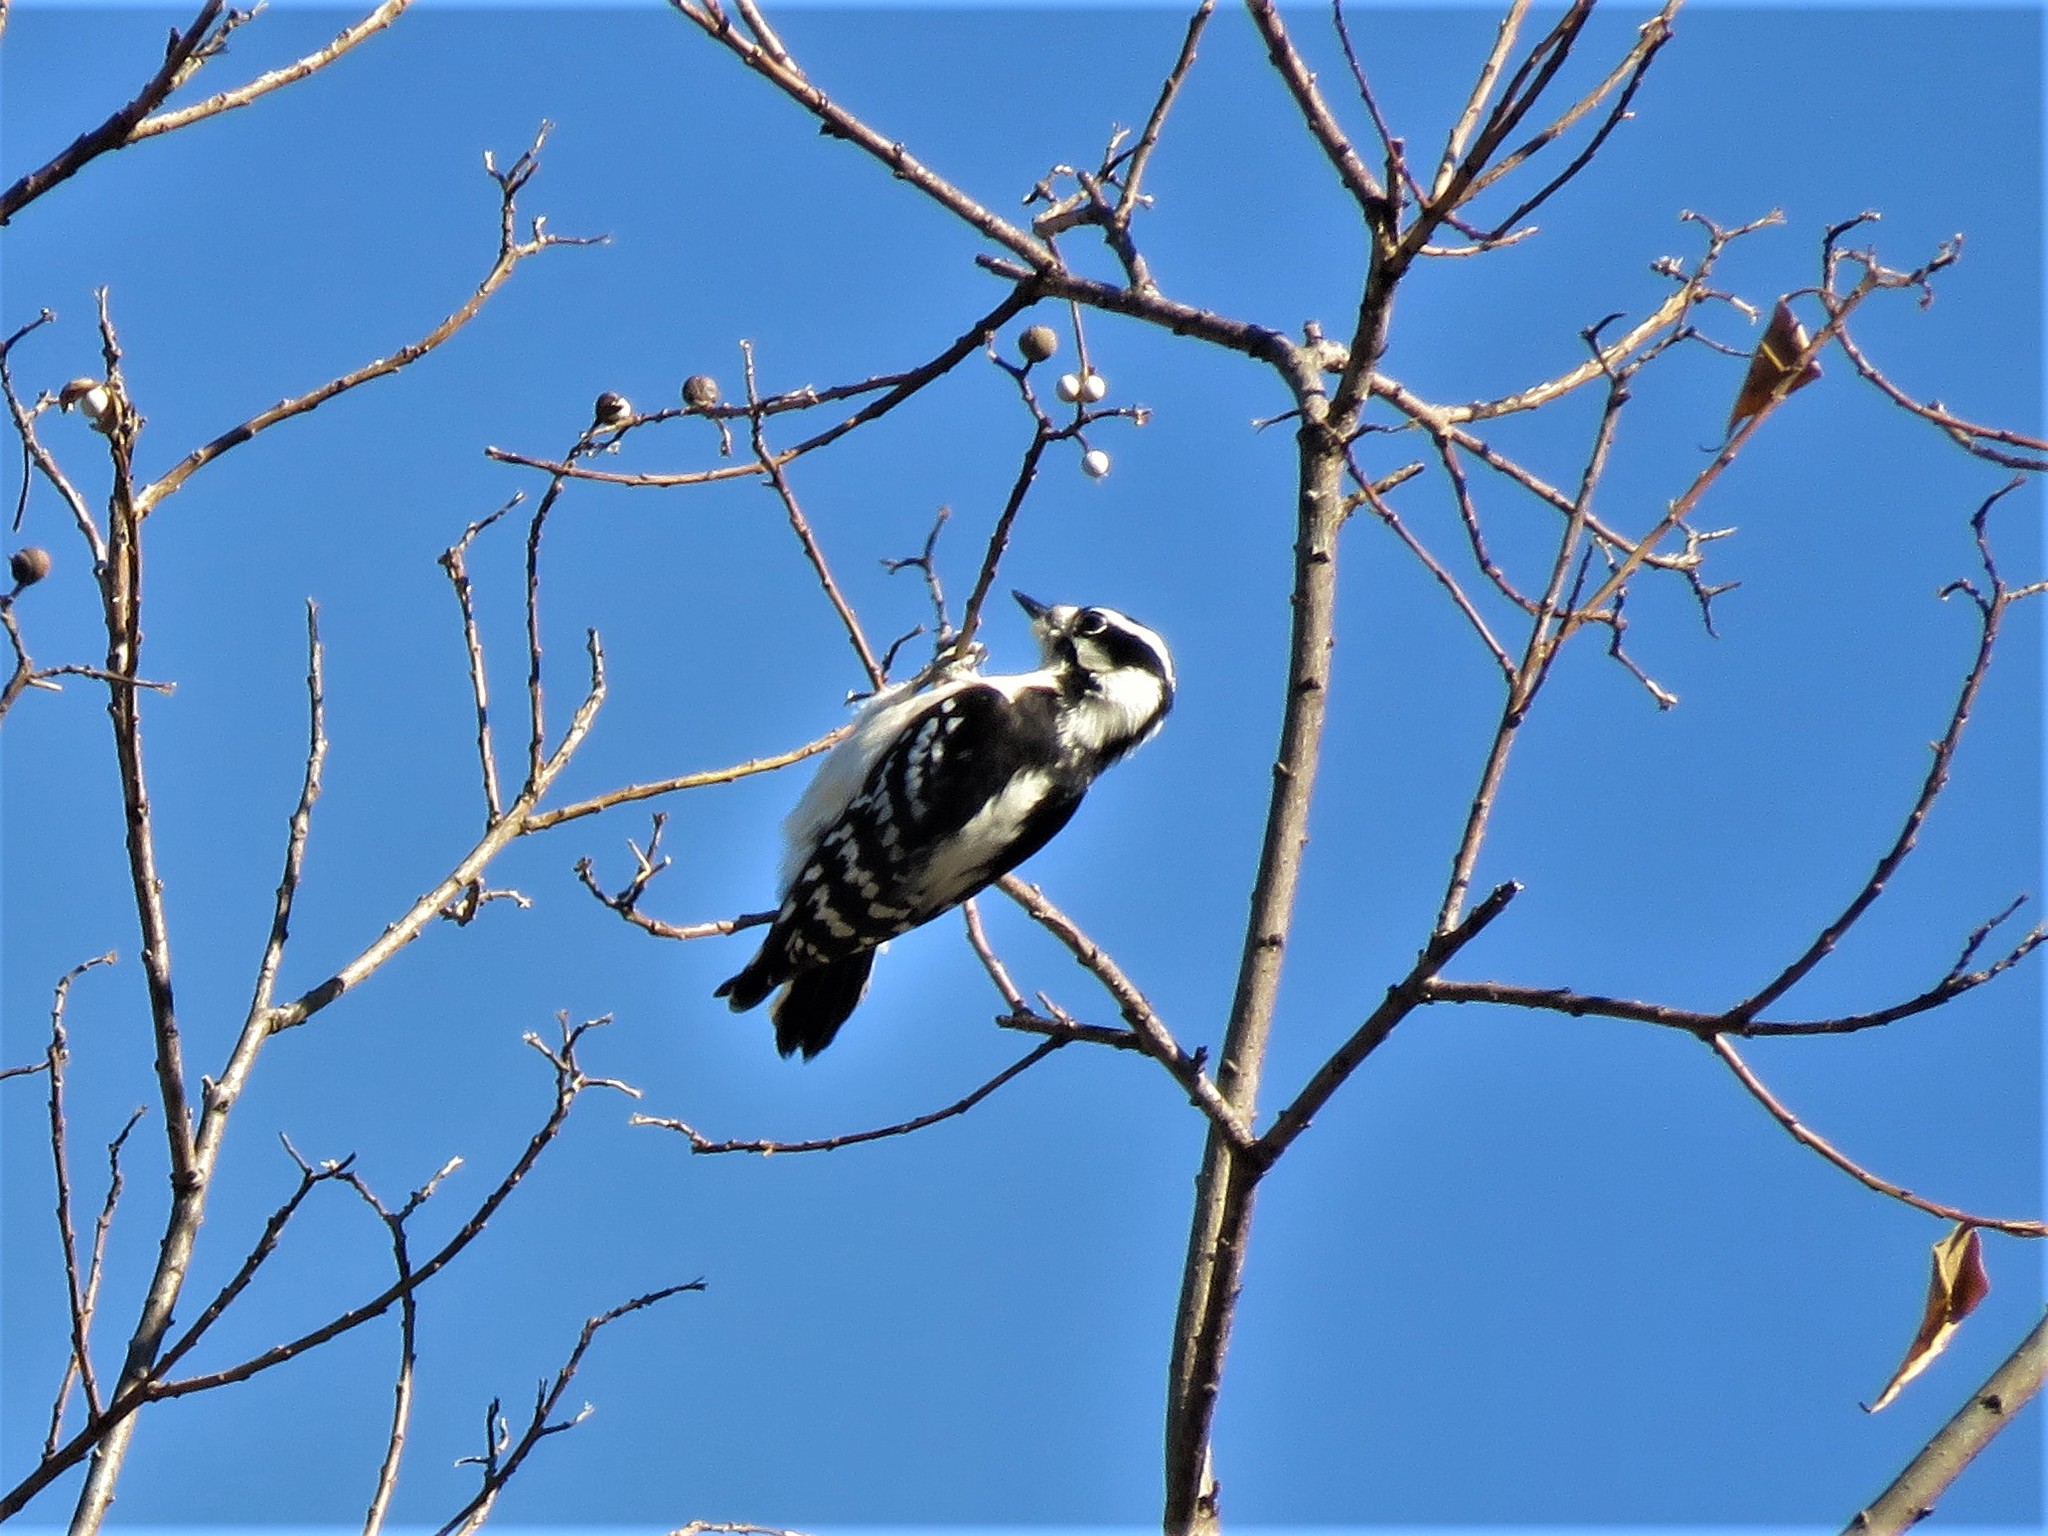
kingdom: Animalia
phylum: Chordata
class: Aves
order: Piciformes
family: Picidae
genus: Dryobates
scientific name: Dryobates pubescens
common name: Downy woodpecker
